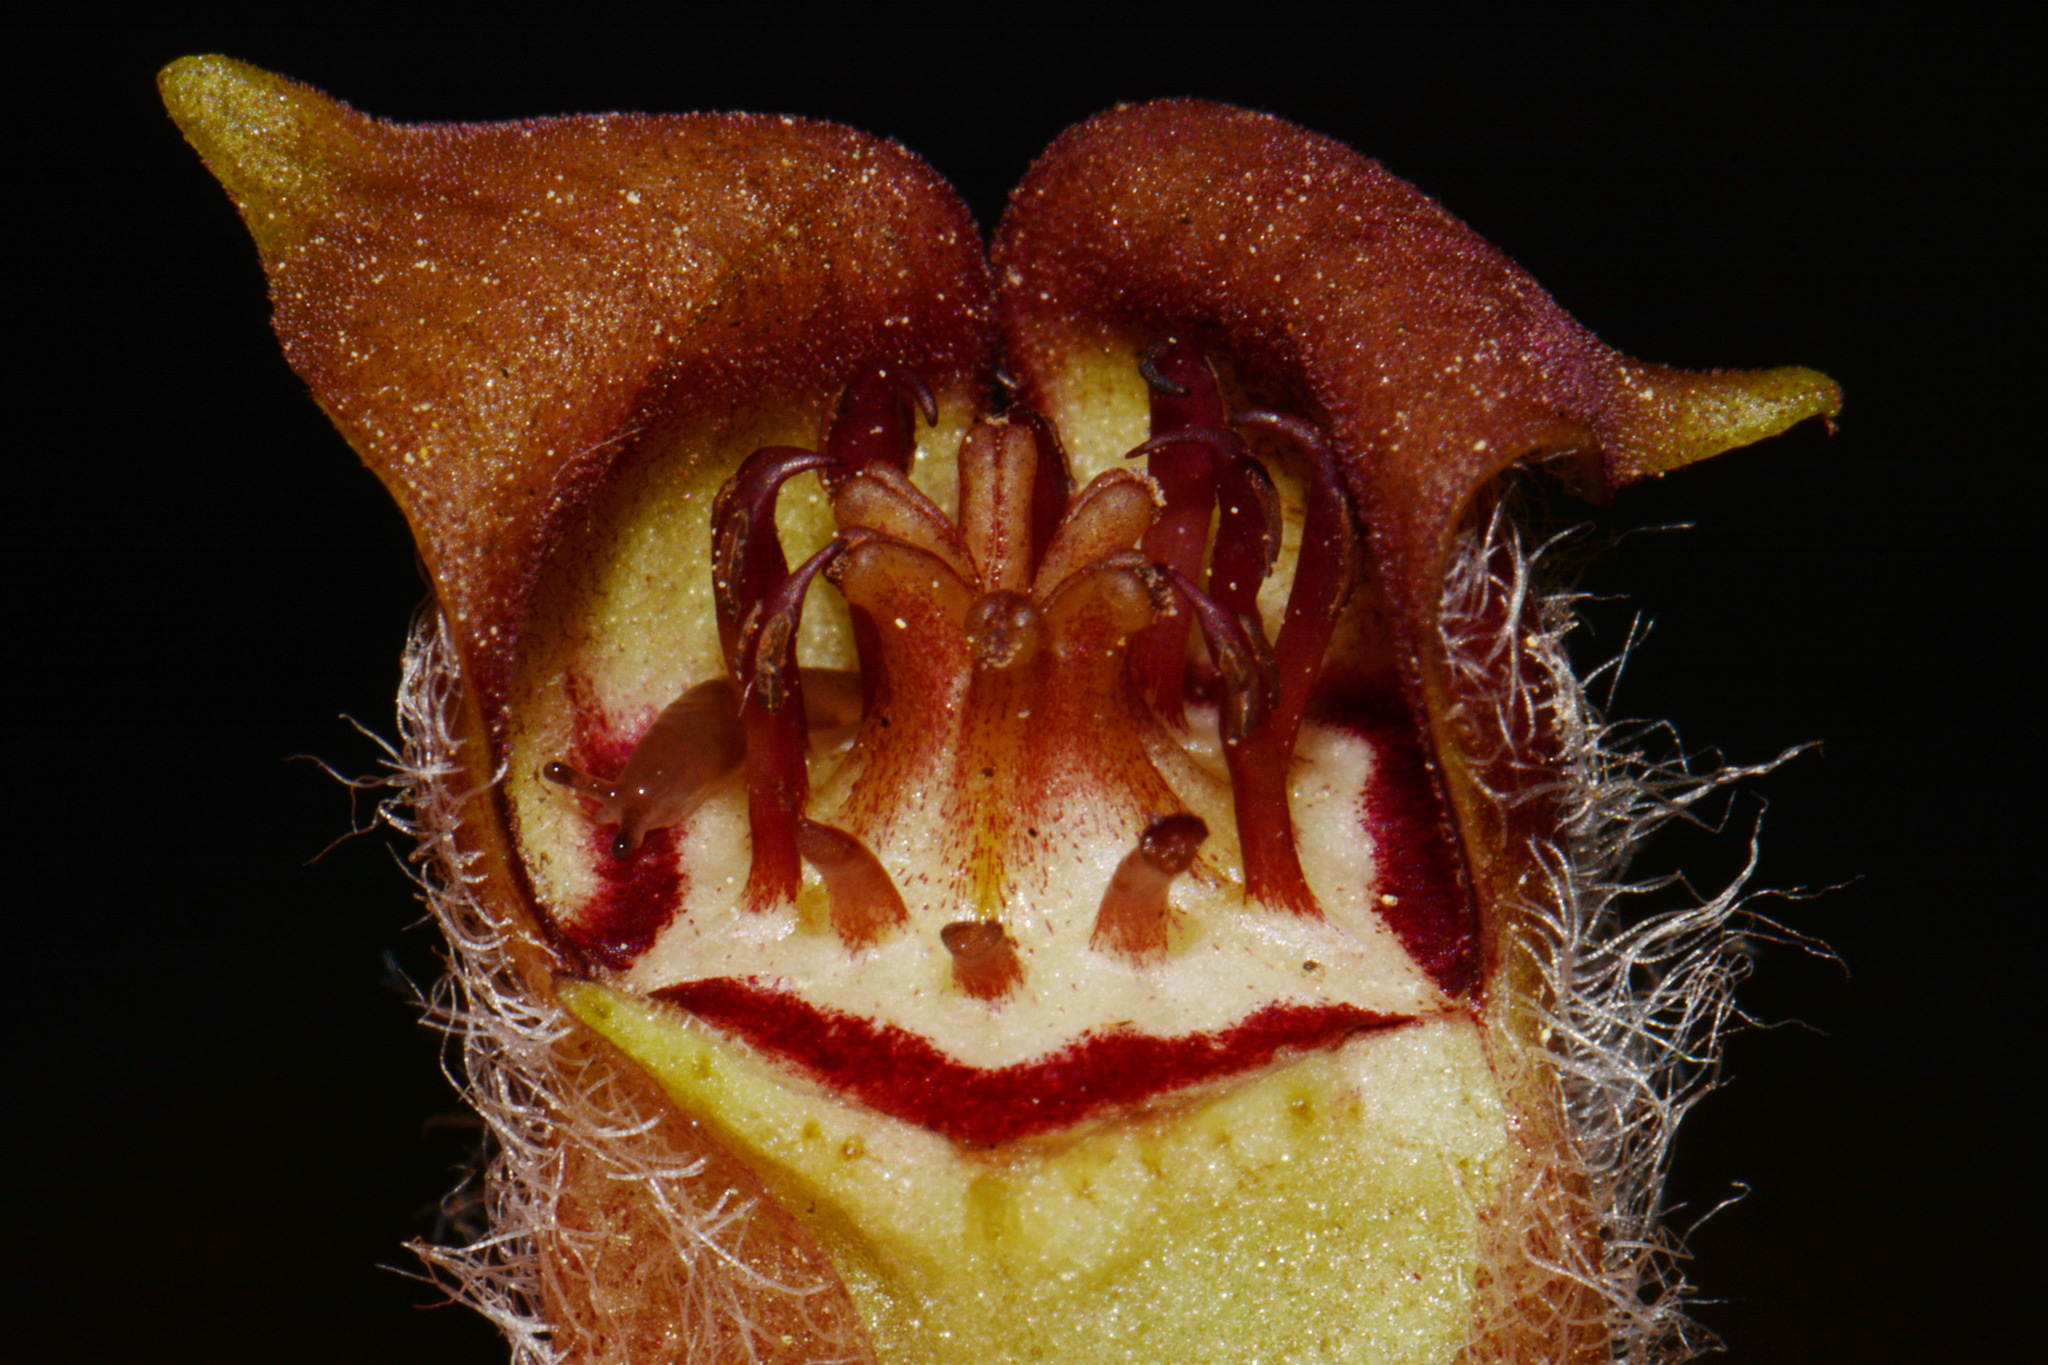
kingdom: Plantae
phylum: Tracheophyta
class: Magnoliopsida
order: Piperales
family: Aristolochiaceae
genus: Asarum
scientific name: Asarum canadense
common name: Wild ginger
